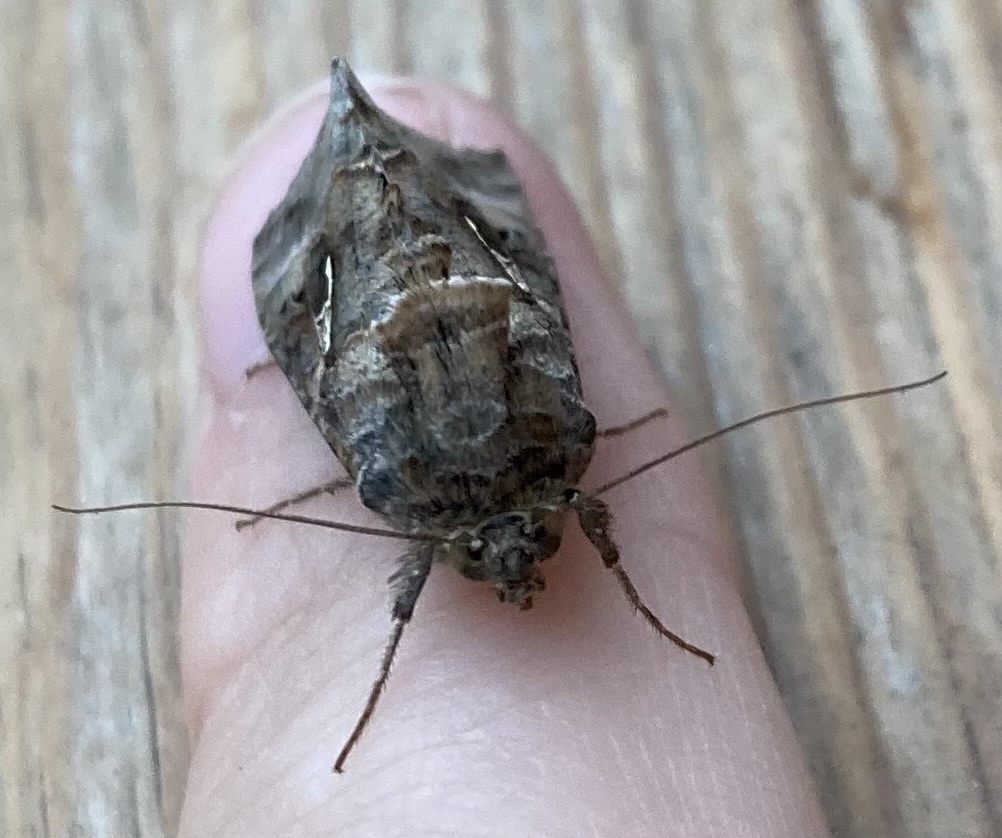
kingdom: Animalia
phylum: Arthropoda
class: Insecta
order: Lepidoptera
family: Noctuidae
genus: Autographa
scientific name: Autographa gamma
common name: Silver y
